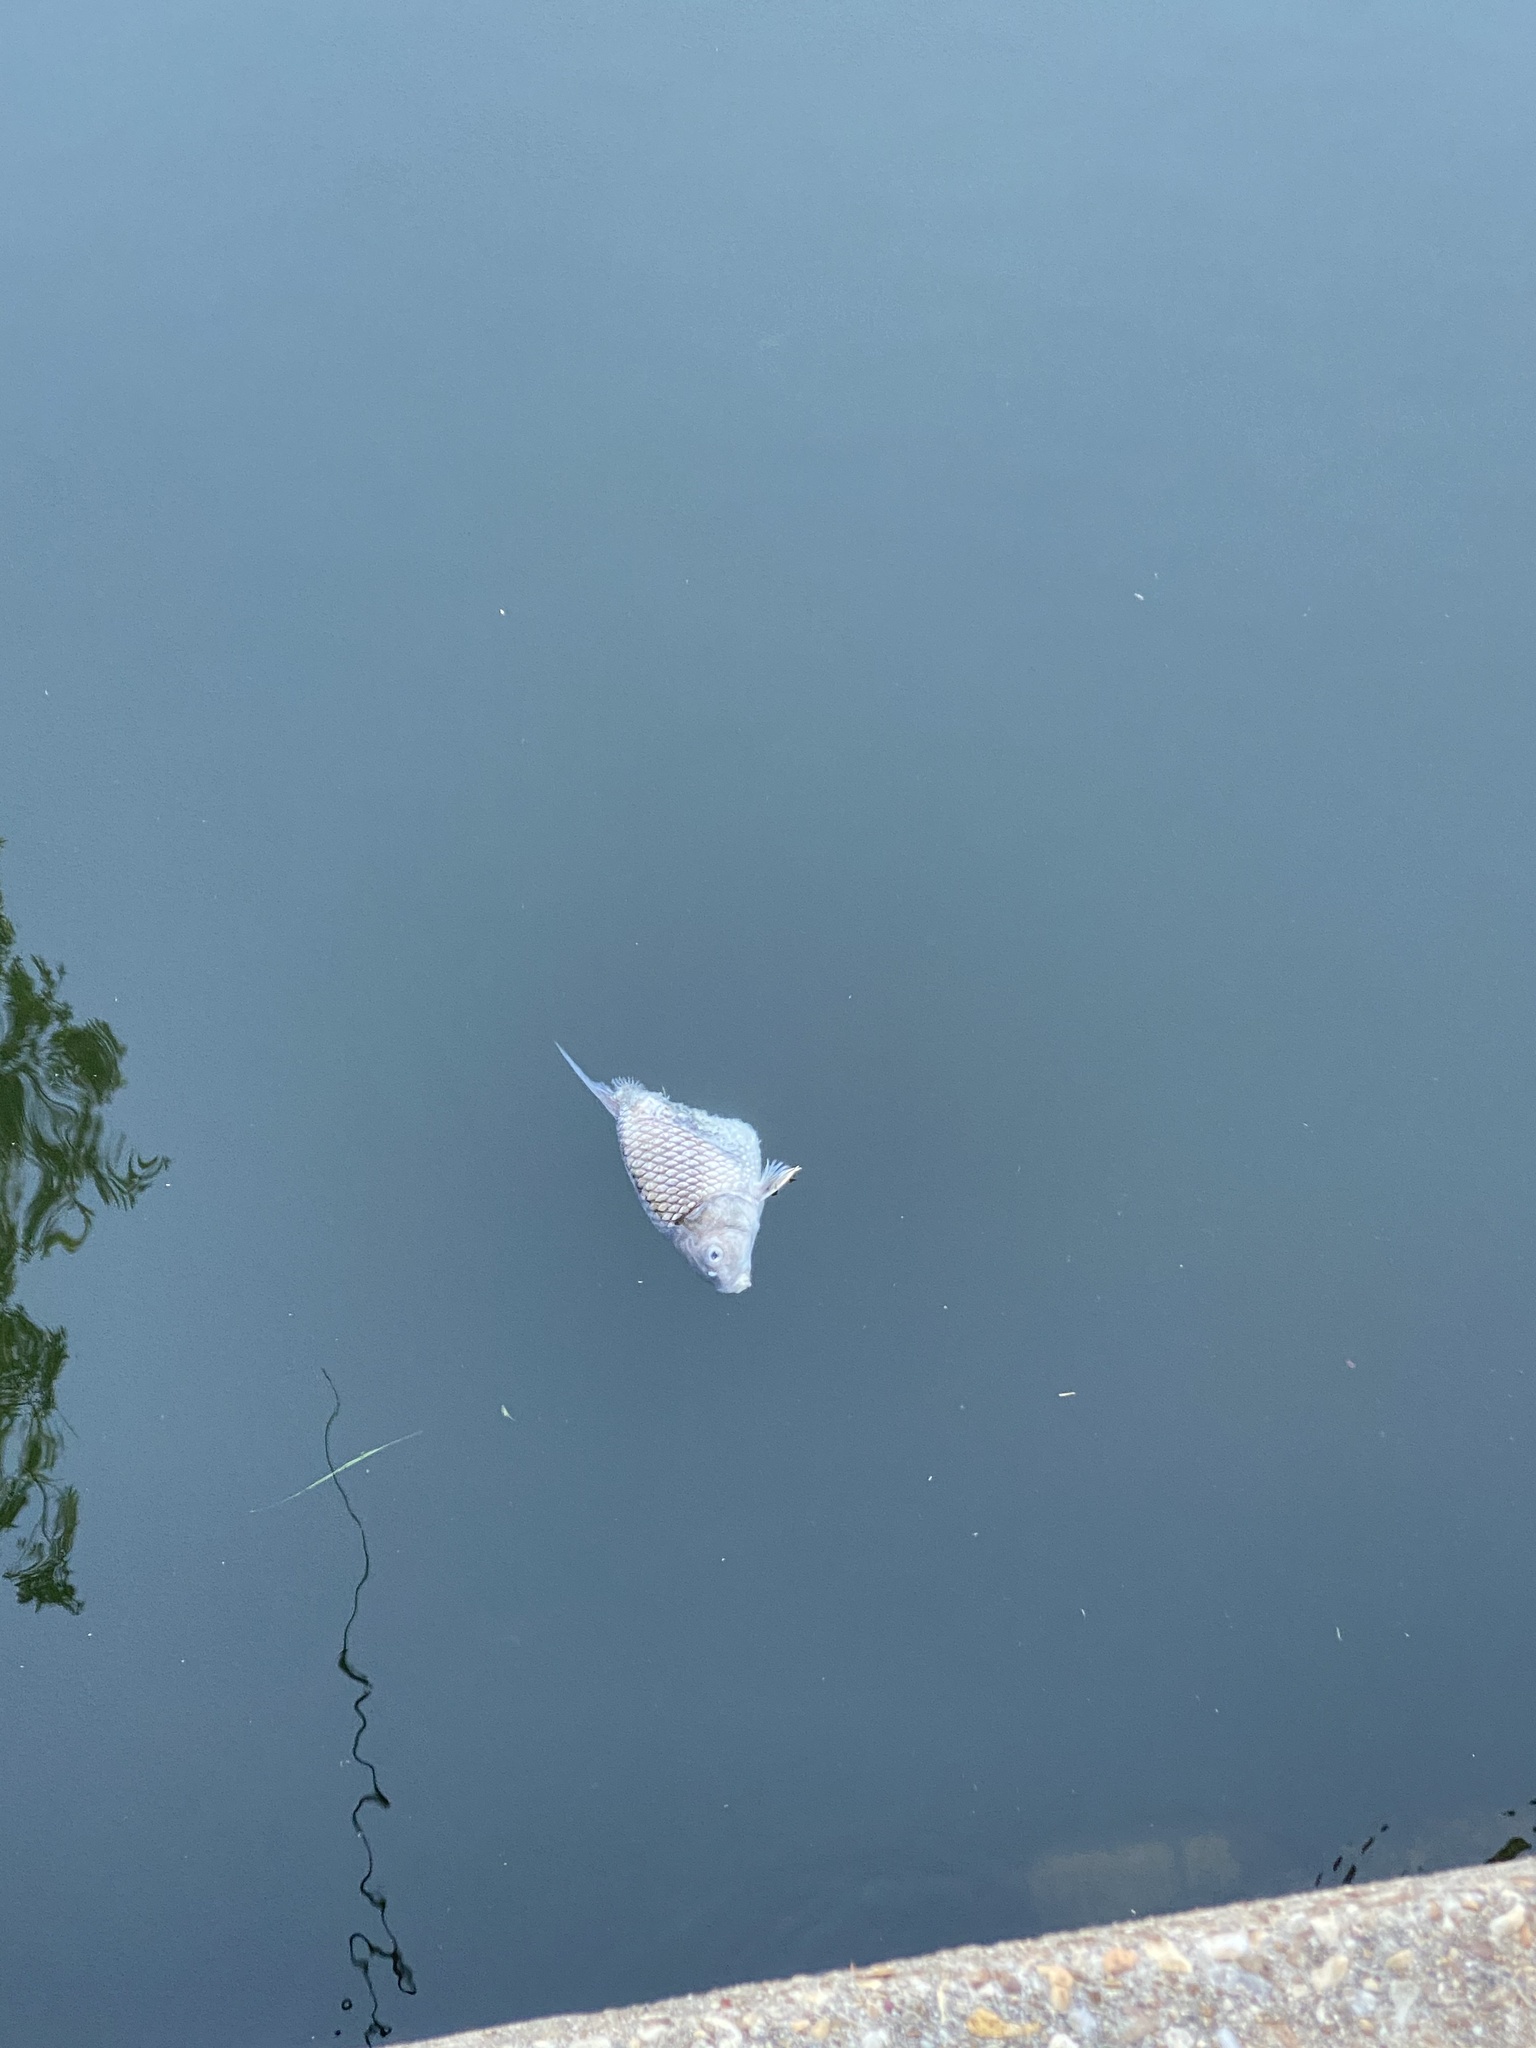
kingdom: Animalia
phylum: Chordata
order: Cypriniformes
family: Catostomidae
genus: Carpiodes
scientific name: Carpiodes cyprinus
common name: Quillback
